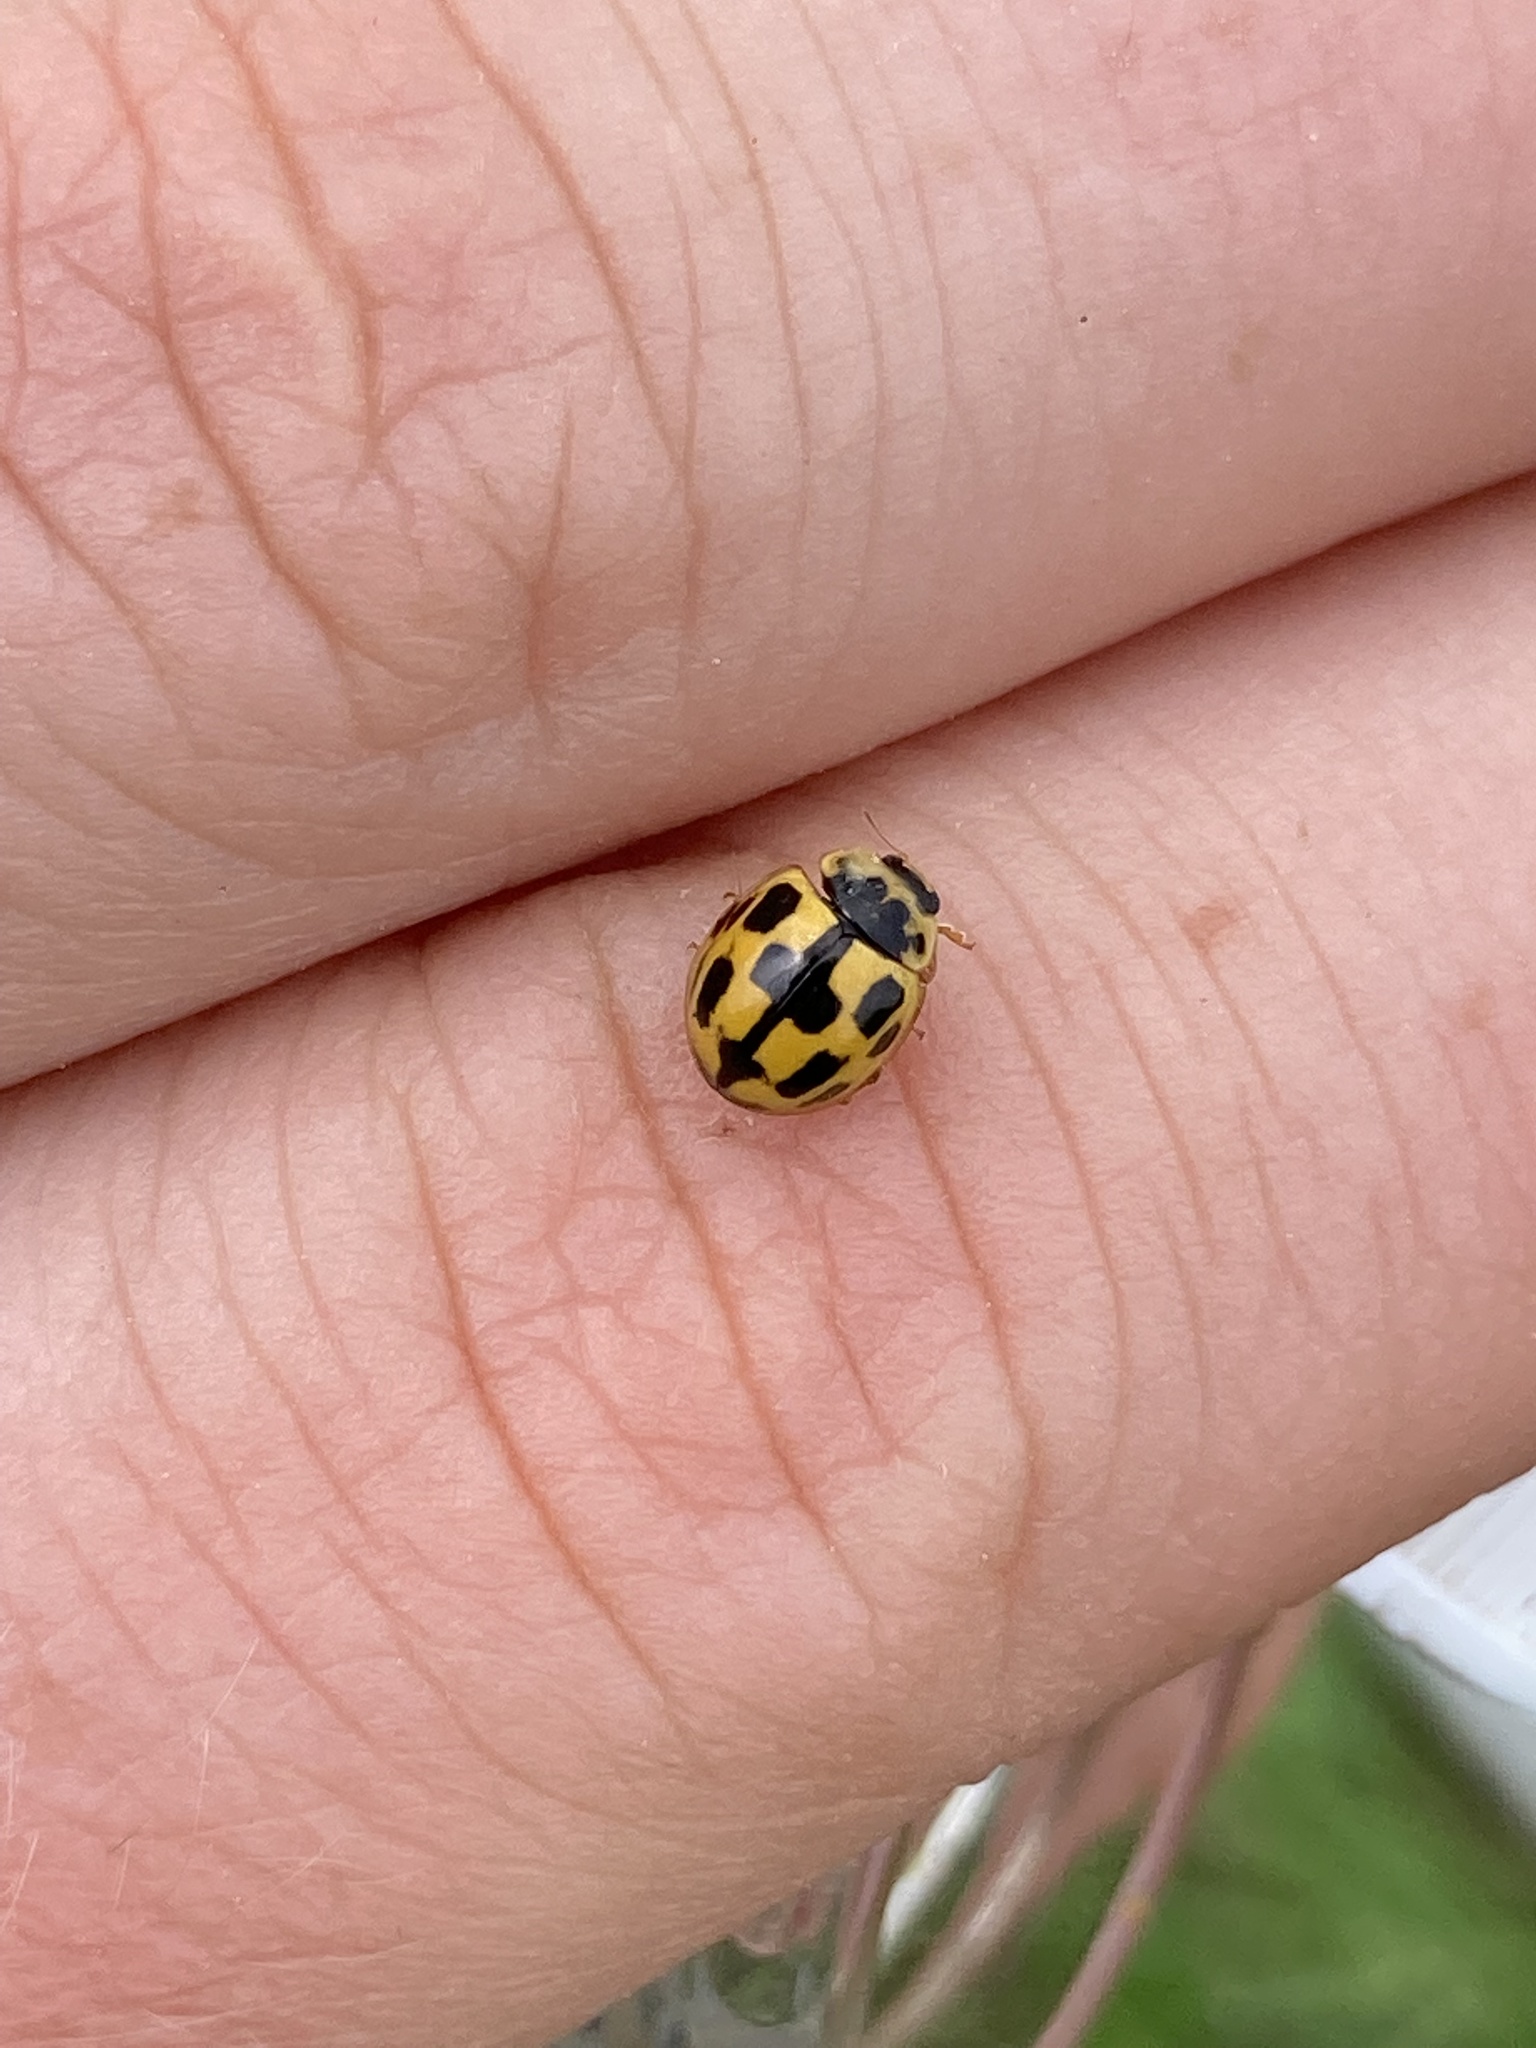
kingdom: Animalia
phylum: Arthropoda
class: Insecta
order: Coleoptera
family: Coccinellidae
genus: Propylaea
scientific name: Propylaea quatuordecimpunctata
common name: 14-spotted ladybird beetle
